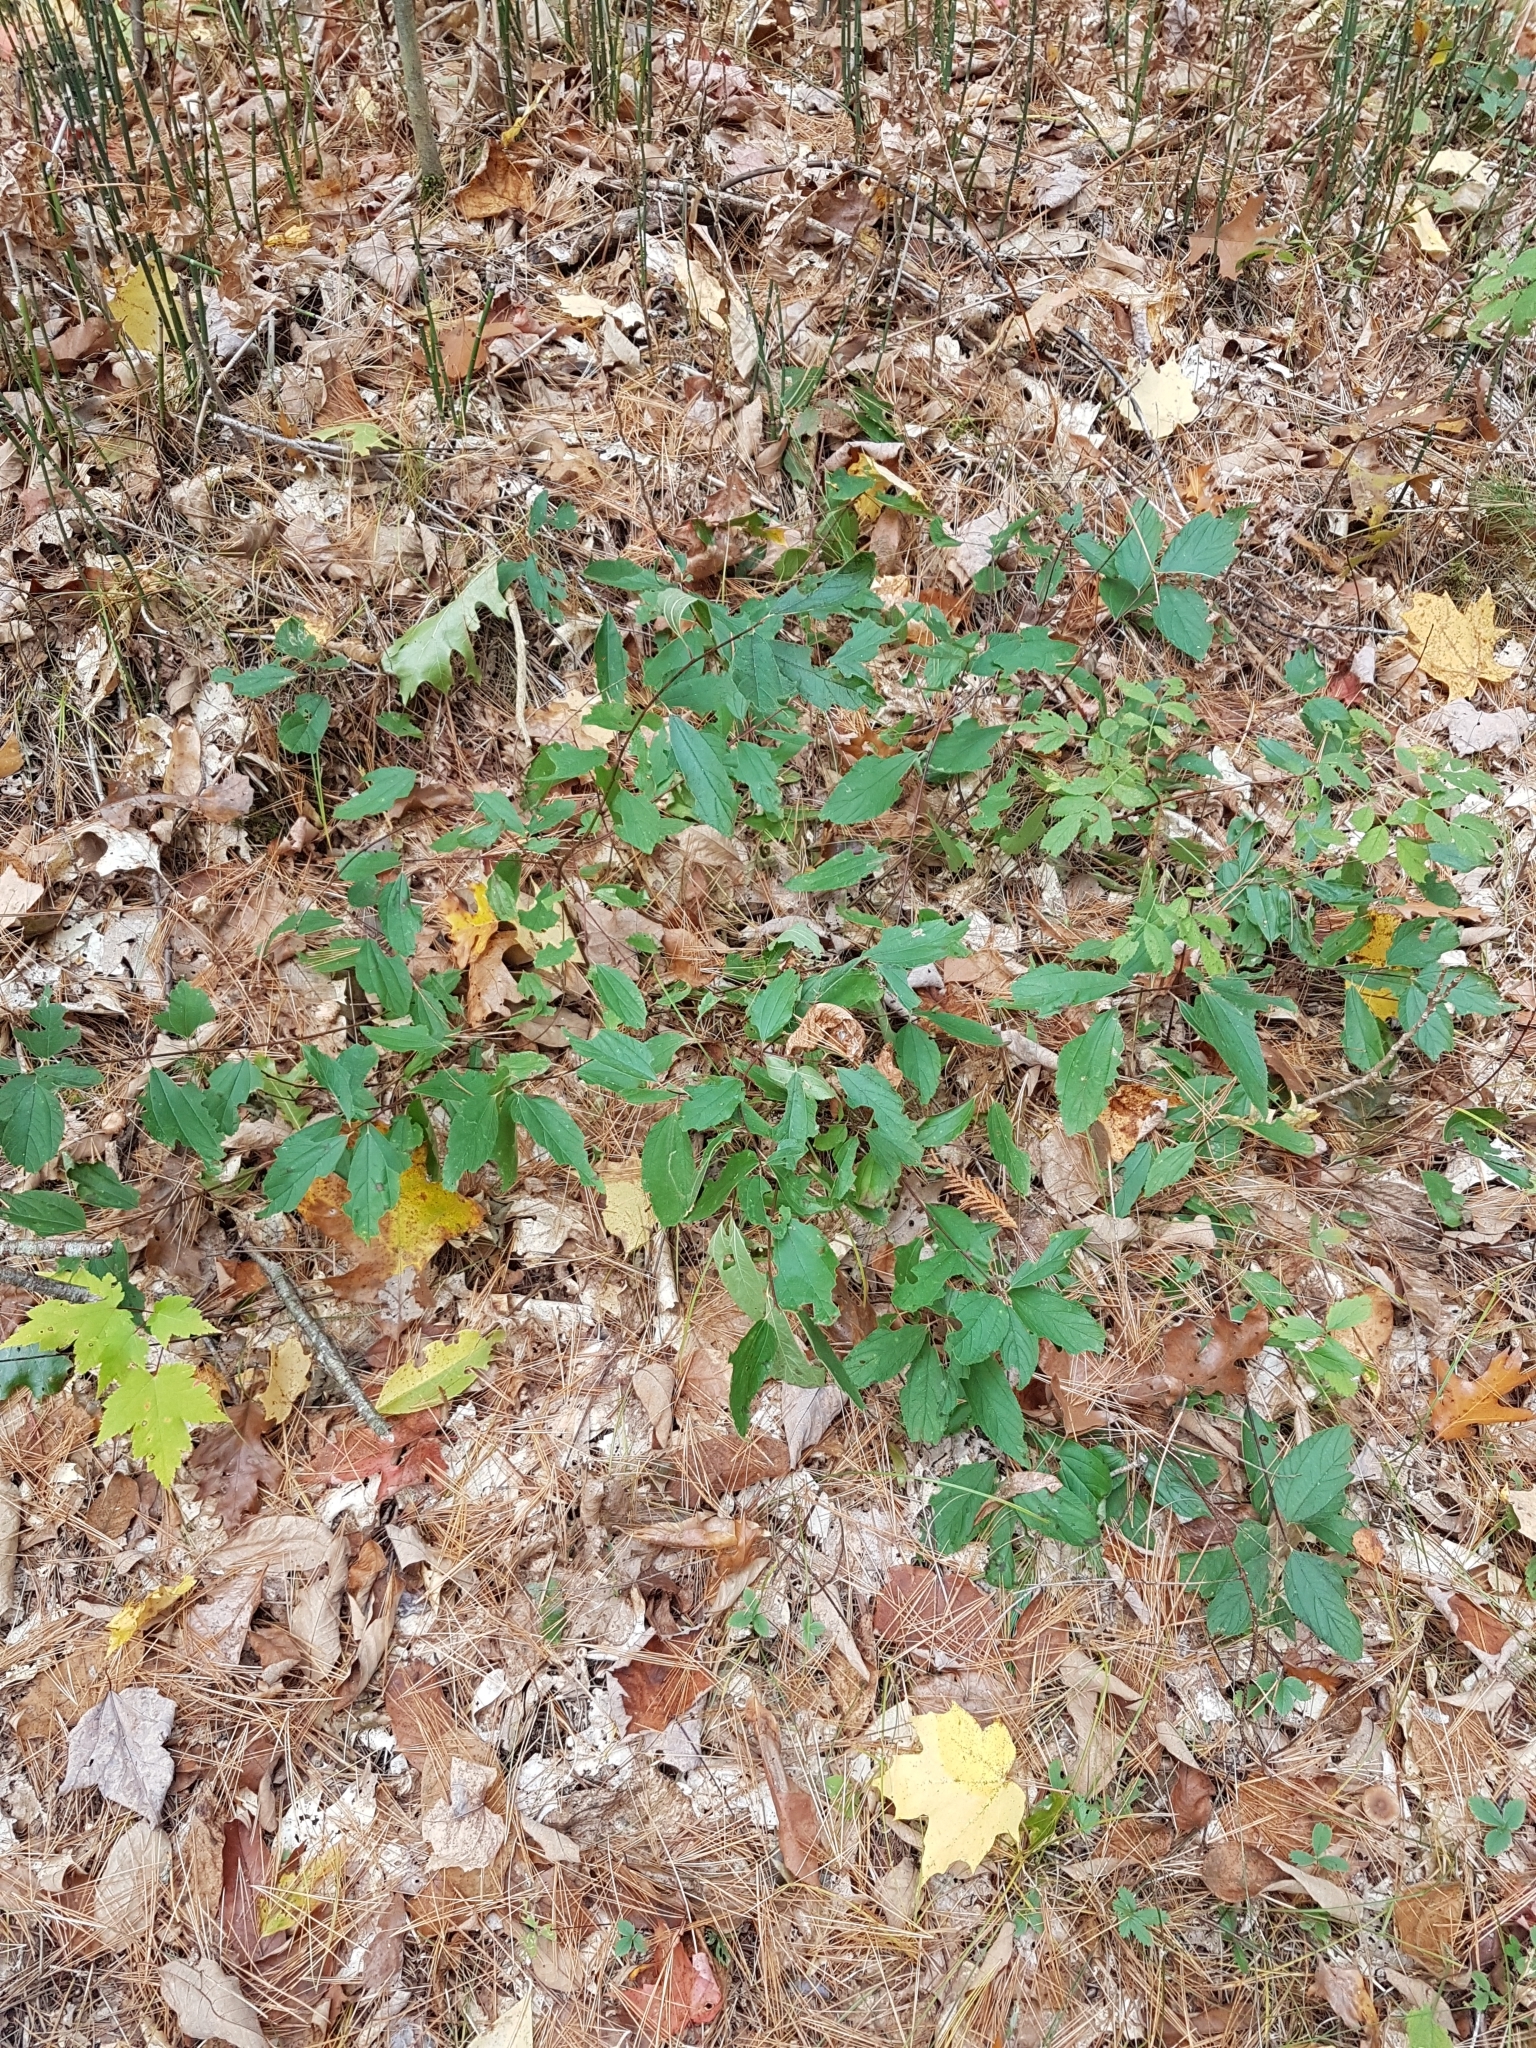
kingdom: Plantae
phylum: Tracheophyta
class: Magnoliopsida
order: Rosales
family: Rhamnaceae
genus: Ceanothus
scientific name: Ceanothus herbaceus
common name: Inland ceanothus
